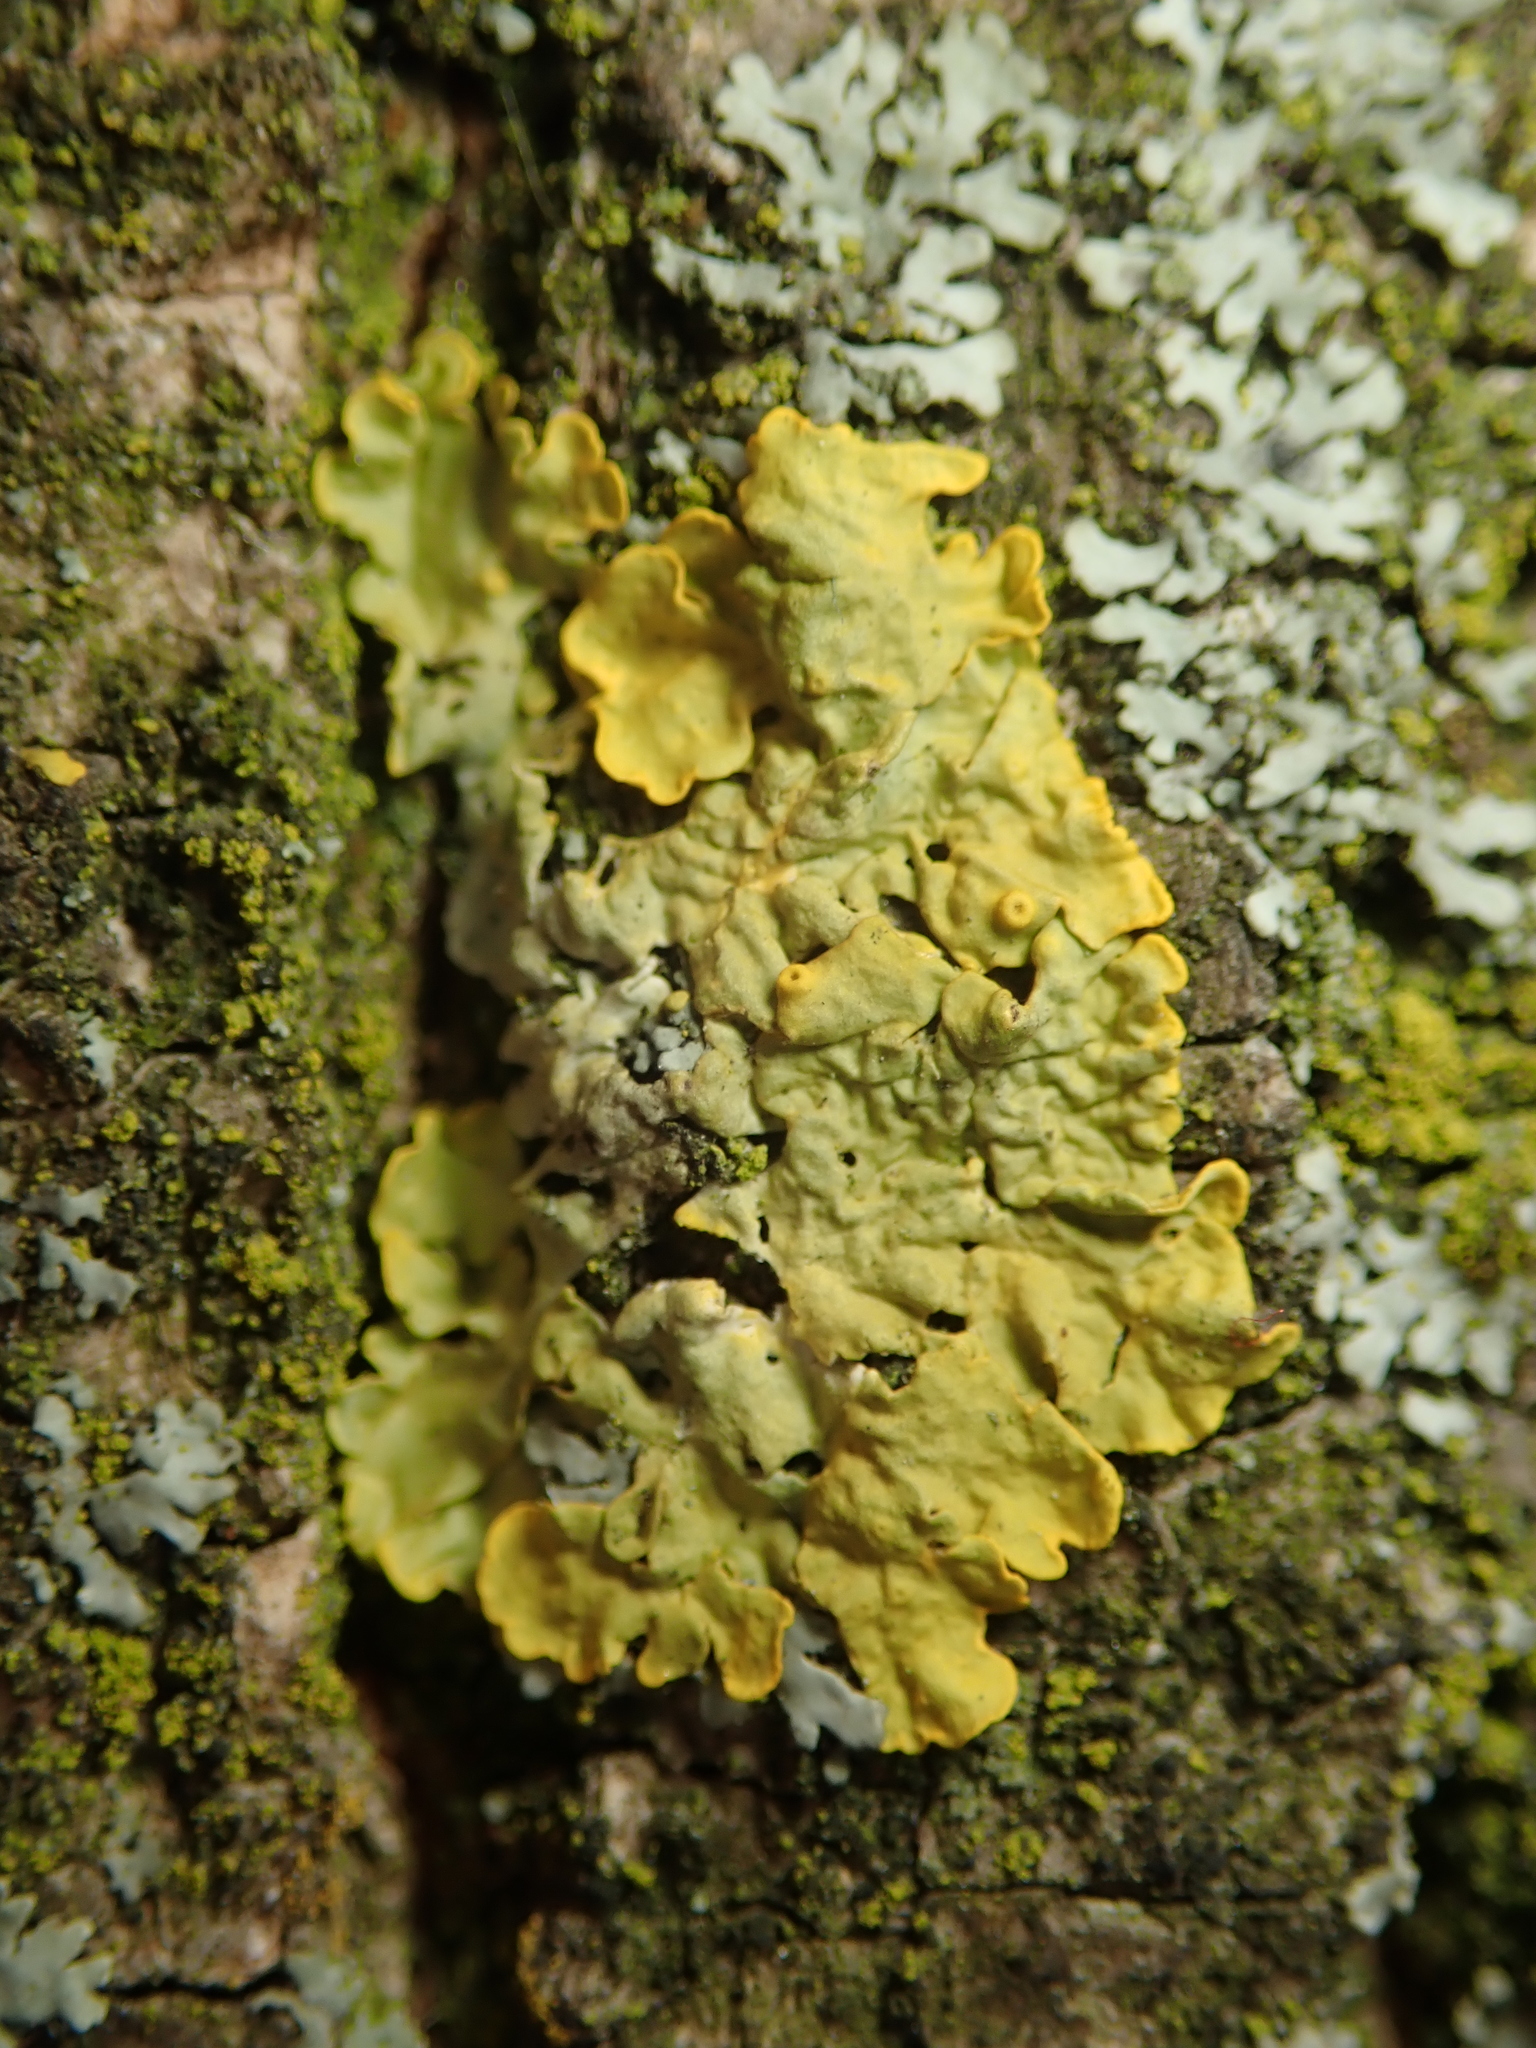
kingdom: Fungi
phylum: Ascomycota
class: Lecanoromycetes
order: Teloschistales
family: Teloschistaceae
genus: Xanthoria
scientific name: Xanthoria parietina
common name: Common orange lichen
